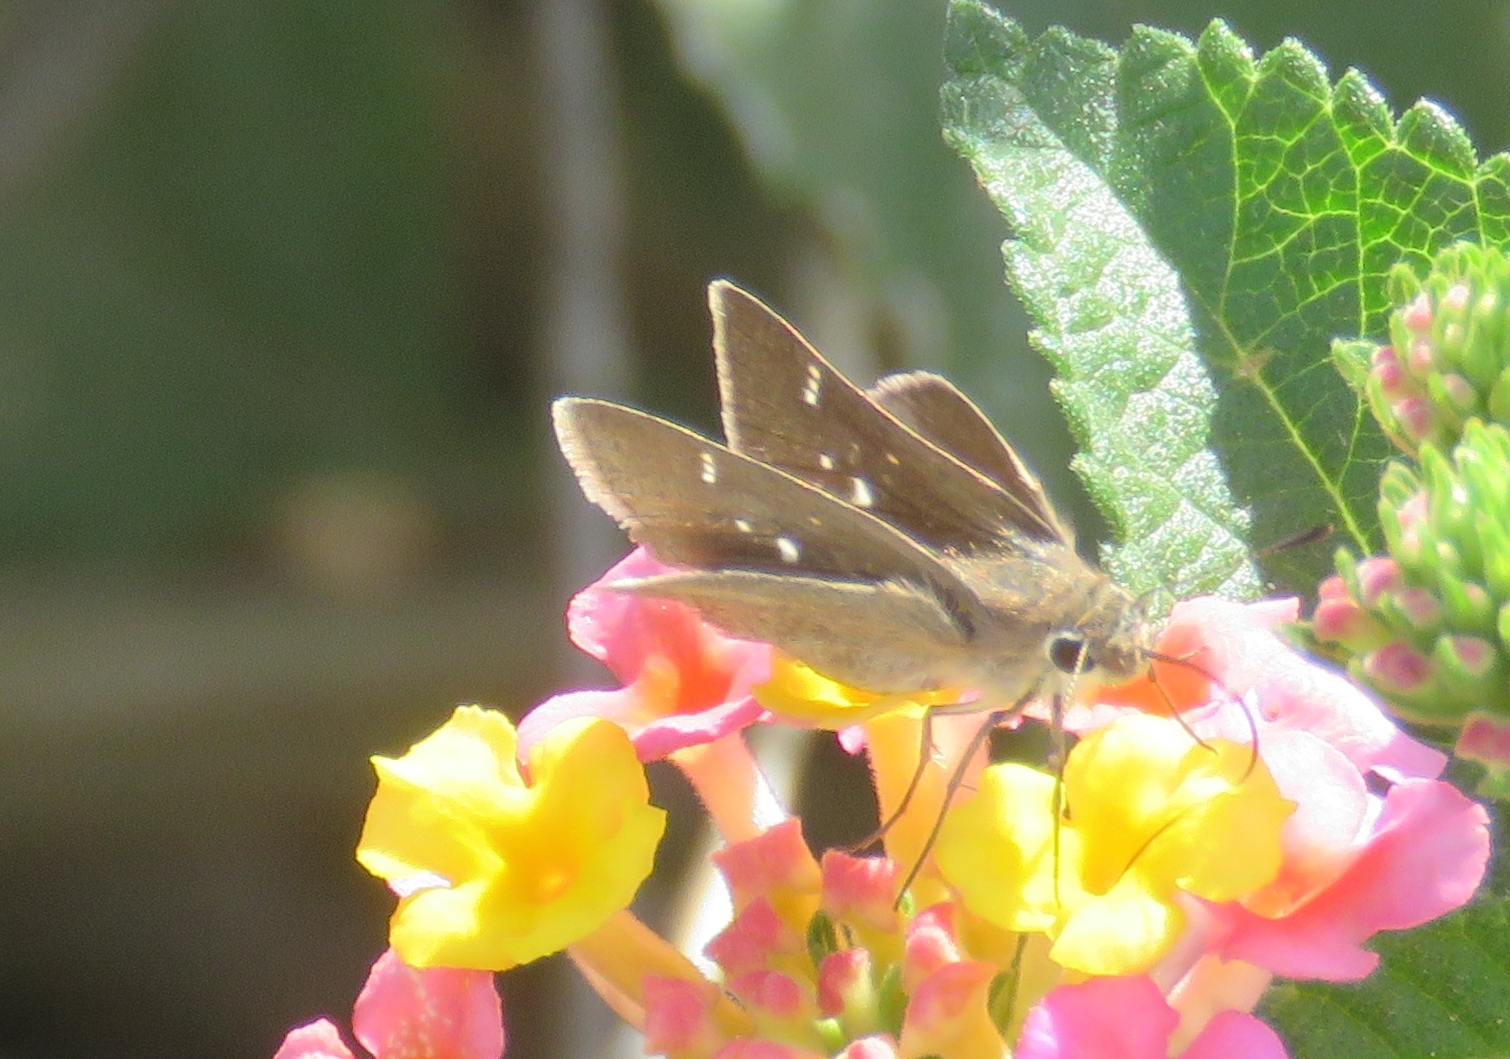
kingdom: Animalia
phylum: Arthropoda
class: Insecta
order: Lepidoptera
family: Hesperiidae
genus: Lerodea
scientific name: Lerodea eufala
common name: Eufala skipper
